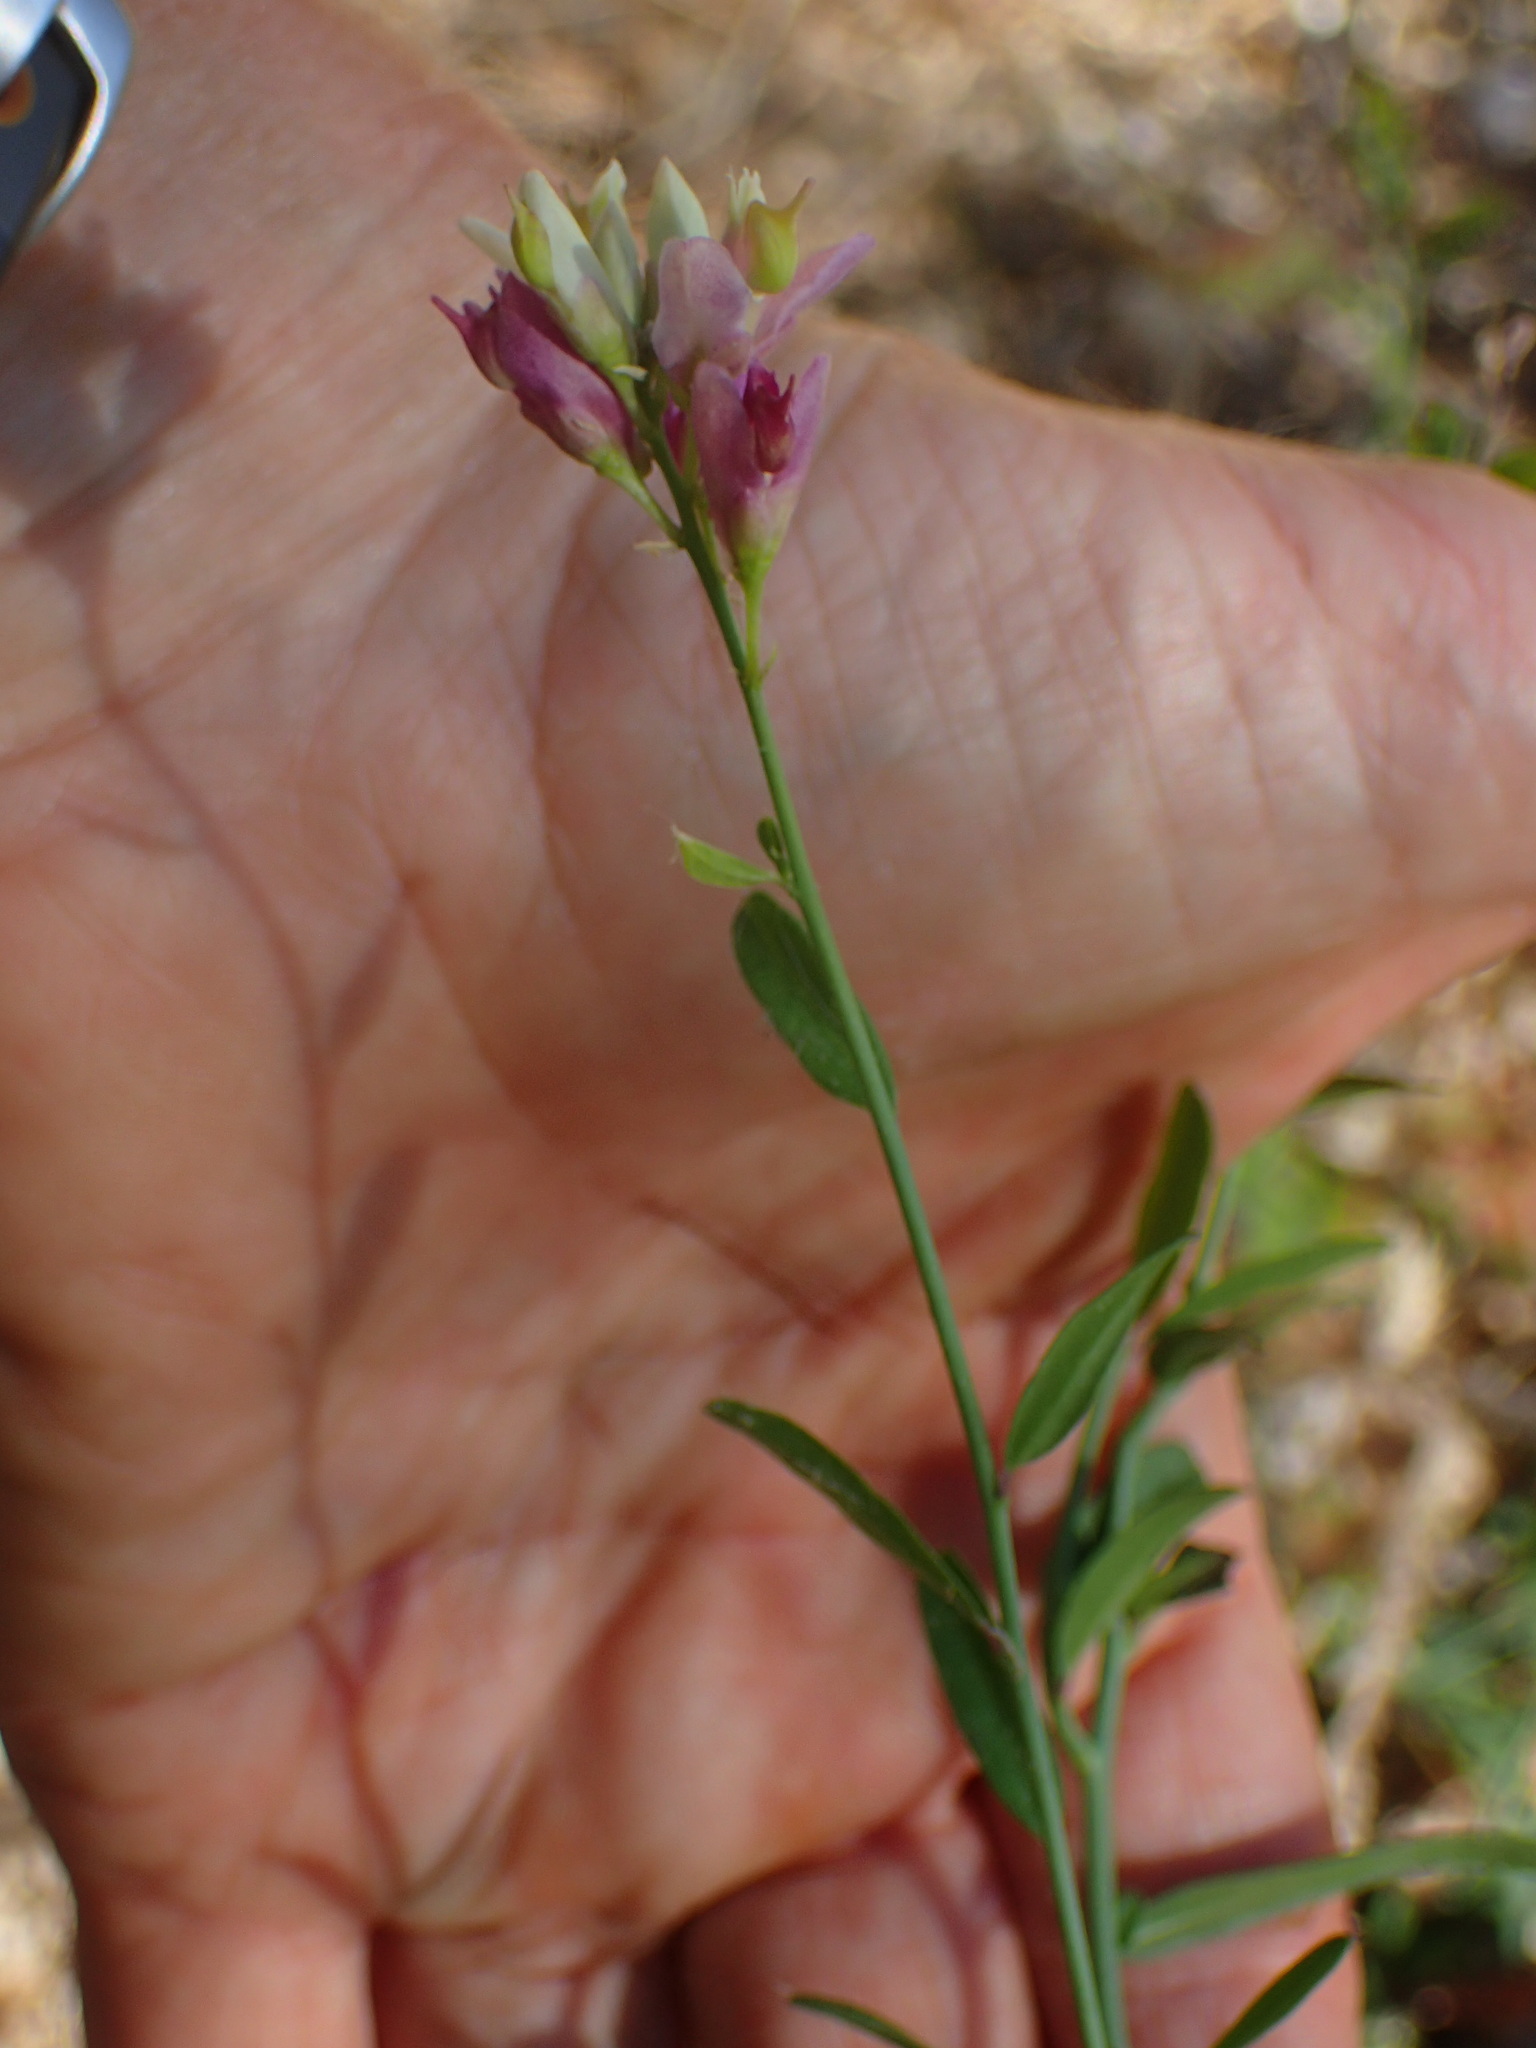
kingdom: Plantae
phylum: Tracheophyta
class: Magnoliopsida
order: Fabales
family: Polygalaceae
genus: Rhinotropis
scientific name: Rhinotropis cornuta
